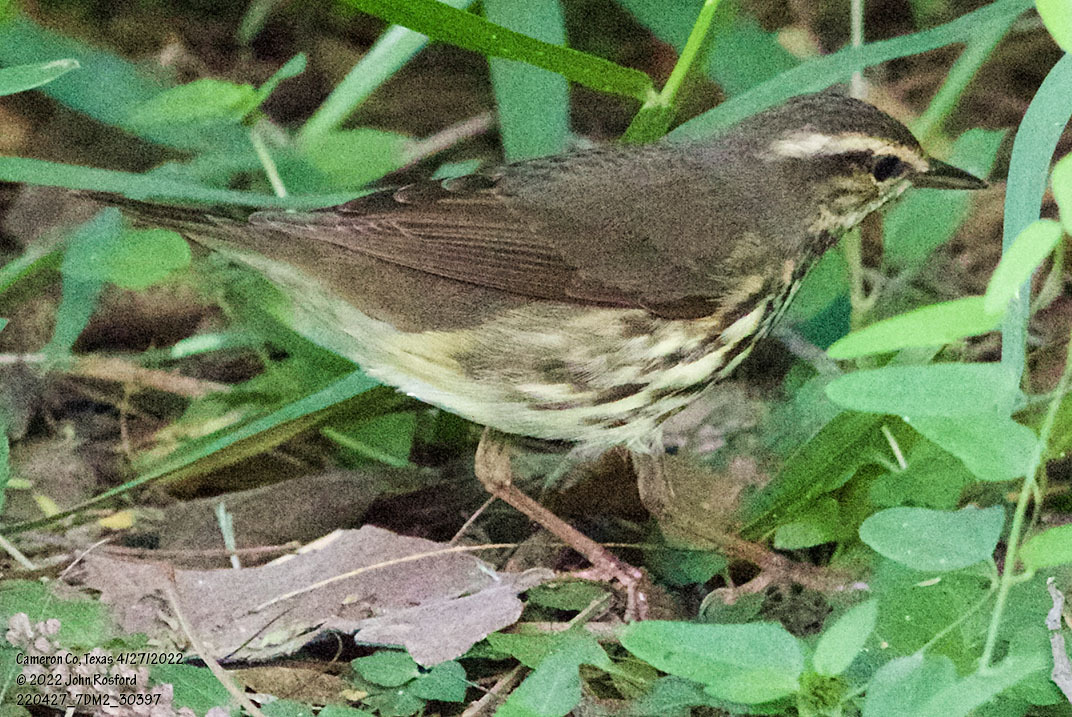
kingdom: Animalia
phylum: Chordata
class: Aves
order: Passeriformes
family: Parulidae
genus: Parkesia
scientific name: Parkesia noveboracensis
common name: Northern waterthrush
